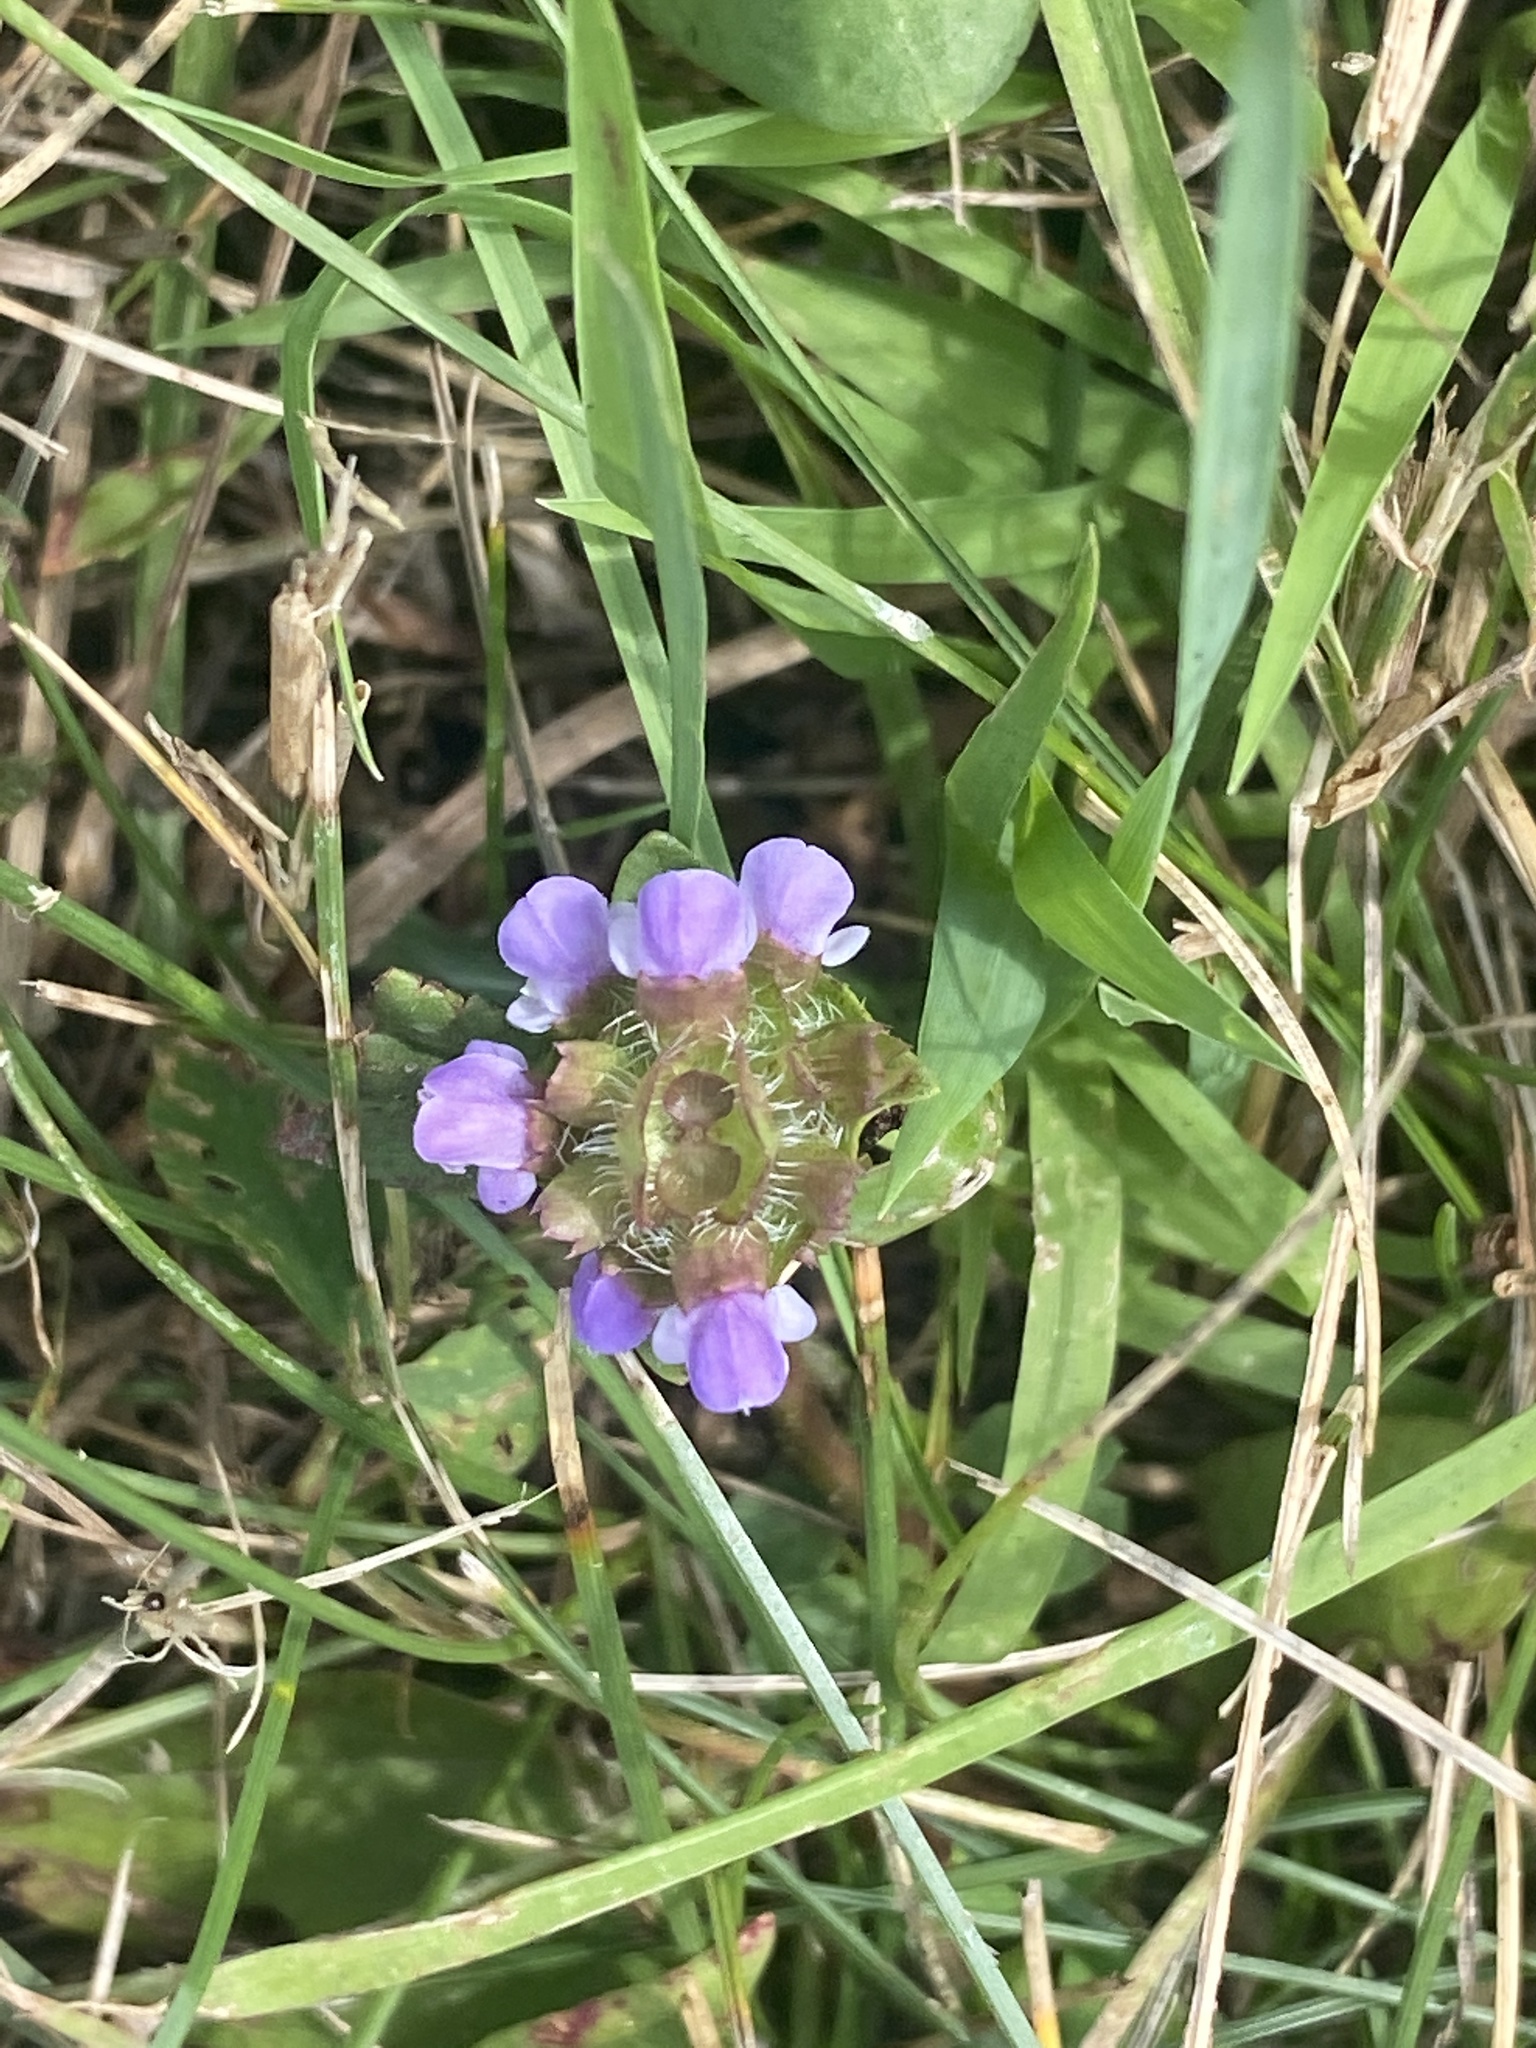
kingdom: Plantae
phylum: Tracheophyta
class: Magnoliopsida
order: Lamiales
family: Lamiaceae
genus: Prunella
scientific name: Prunella vulgaris
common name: Heal-all
